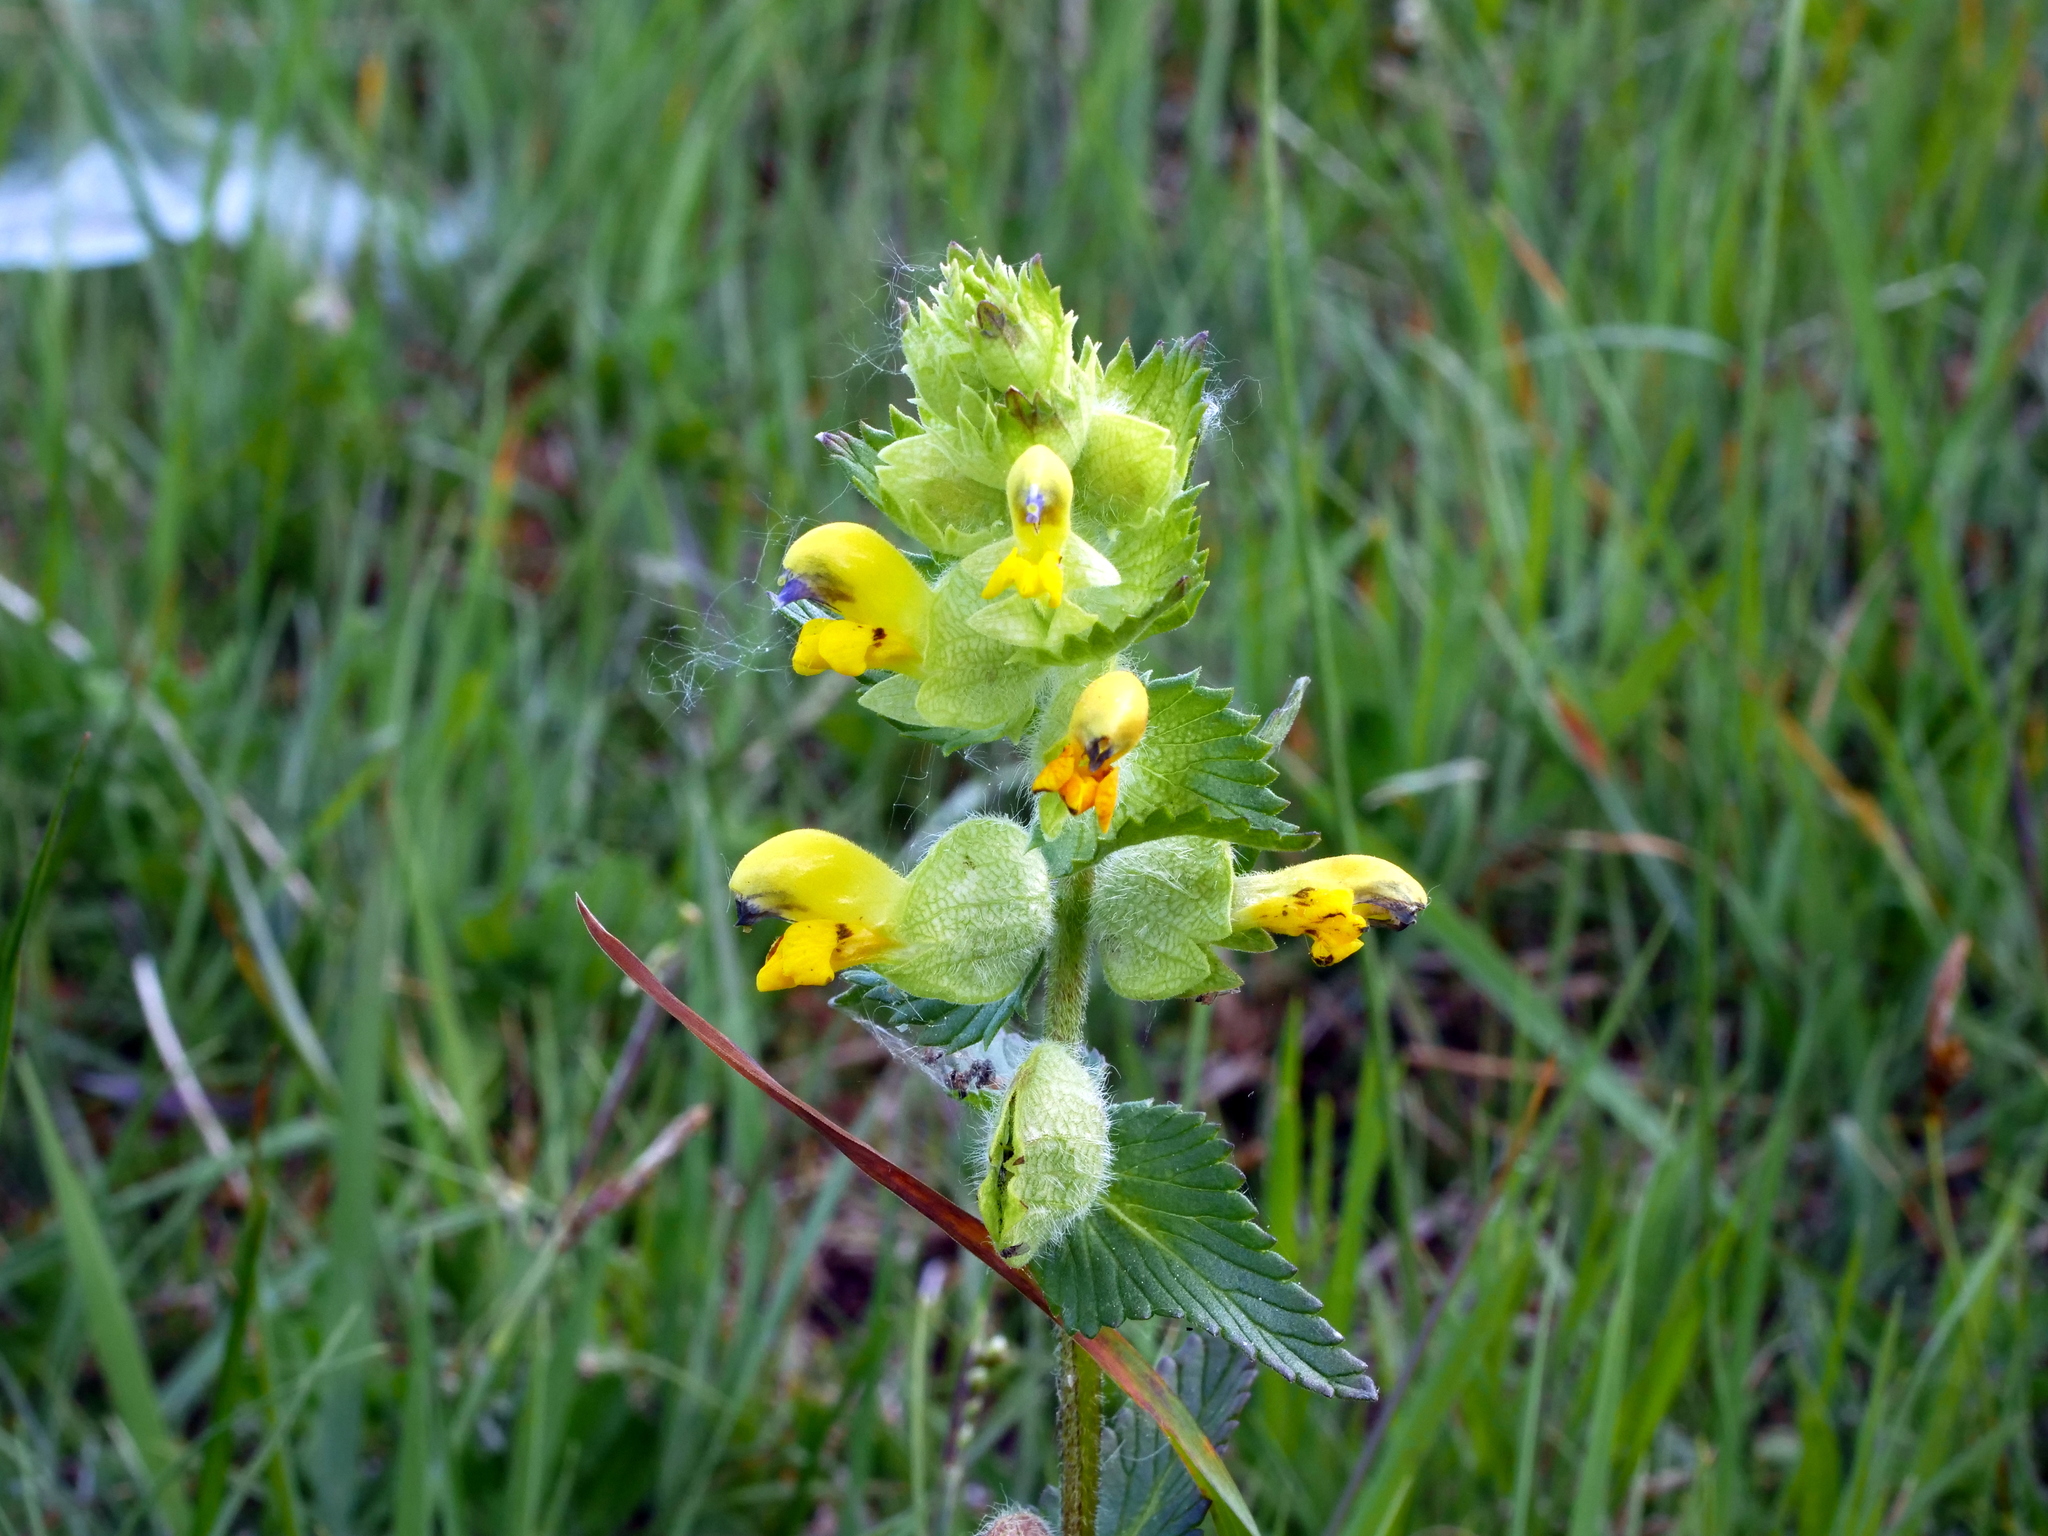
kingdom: Plantae
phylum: Tracheophyta
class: Magnoliopsida
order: Lamiales
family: Orobanchaceae
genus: Rhinanthus
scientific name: Rhinanthus alectorolophus
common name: Greater yellow-rattle
